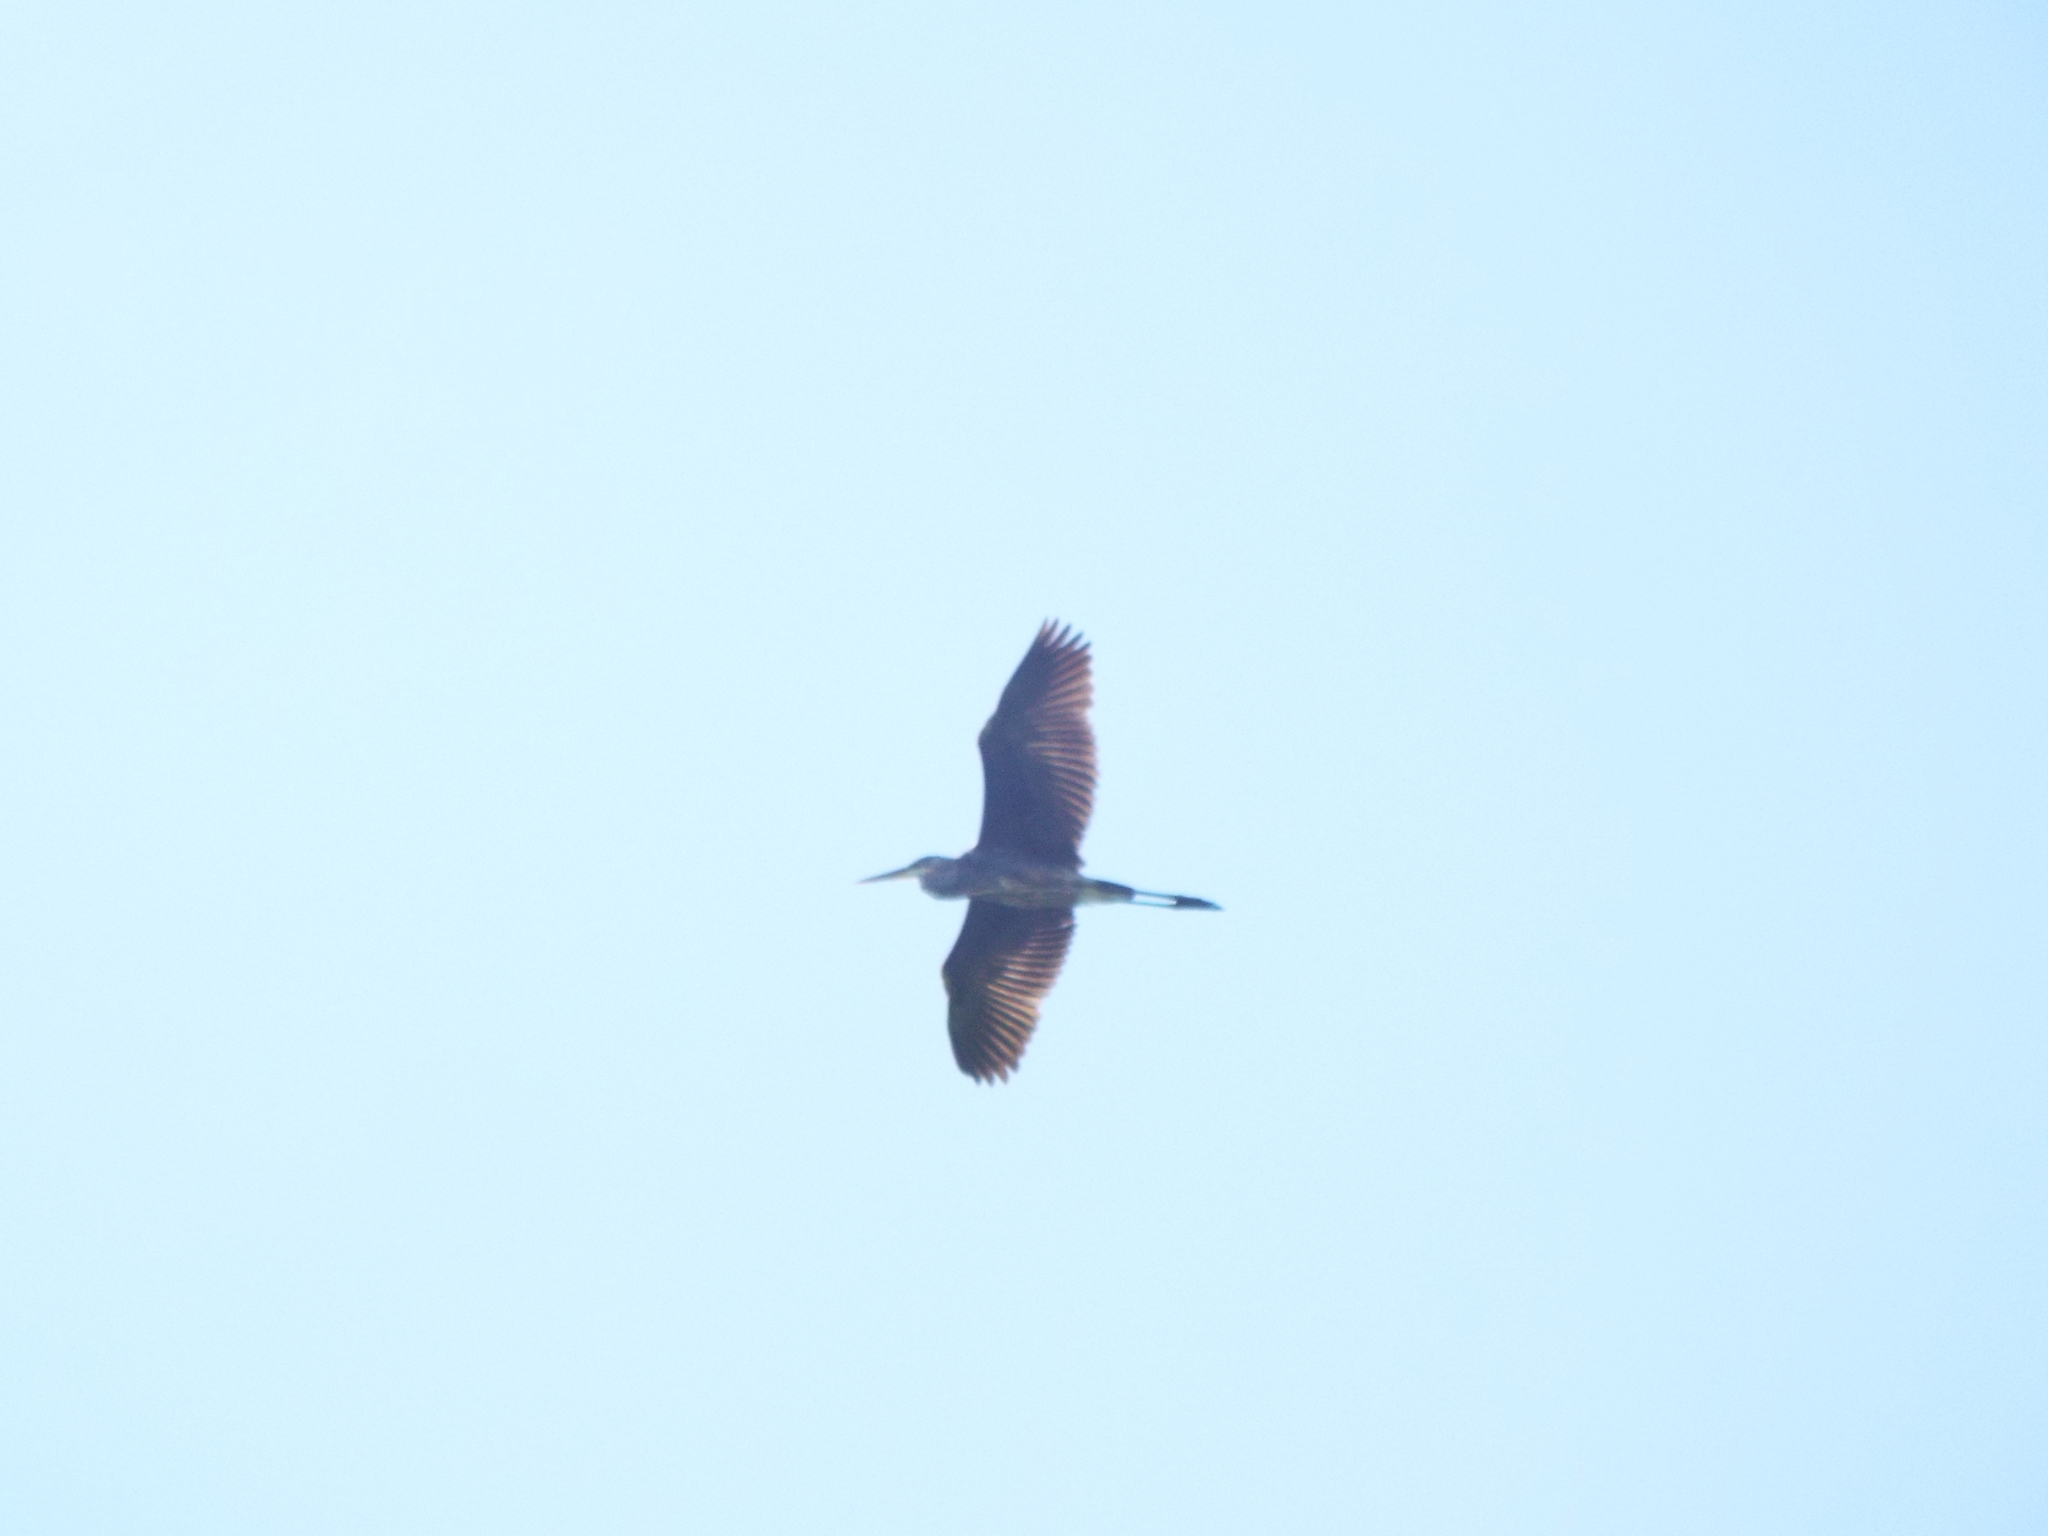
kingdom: Animalia
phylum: Chordata
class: Aves
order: Pelecaniformes
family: Ardeidae
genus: Ardea
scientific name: Ardea herodias
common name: Great blue heron
